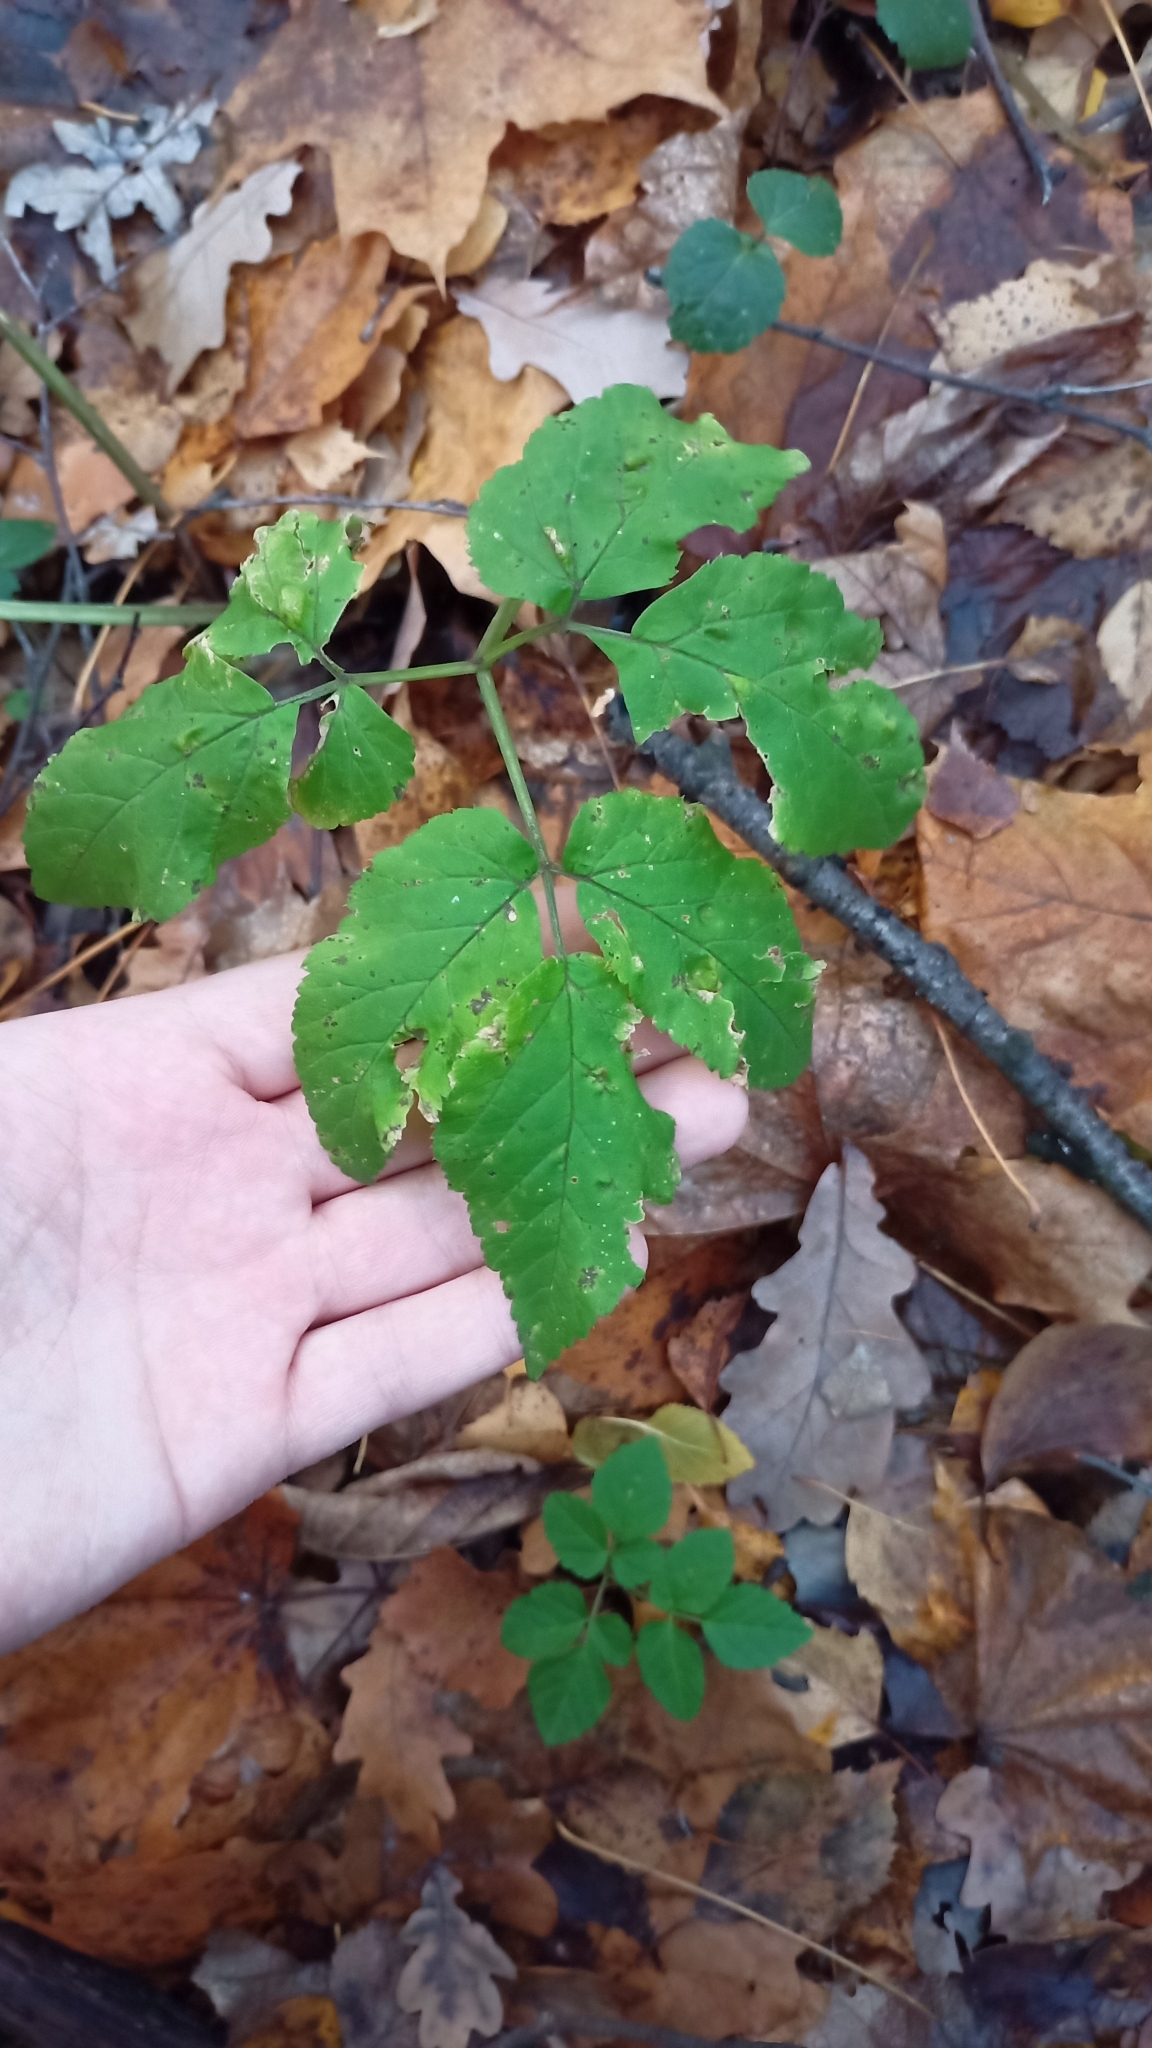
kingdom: Plantae
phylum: Tracheophyta
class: Magnoliopsida
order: Apiales
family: Apiaceae
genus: Aegopodium
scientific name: Aegopodium podagraria
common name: Ground-elder
